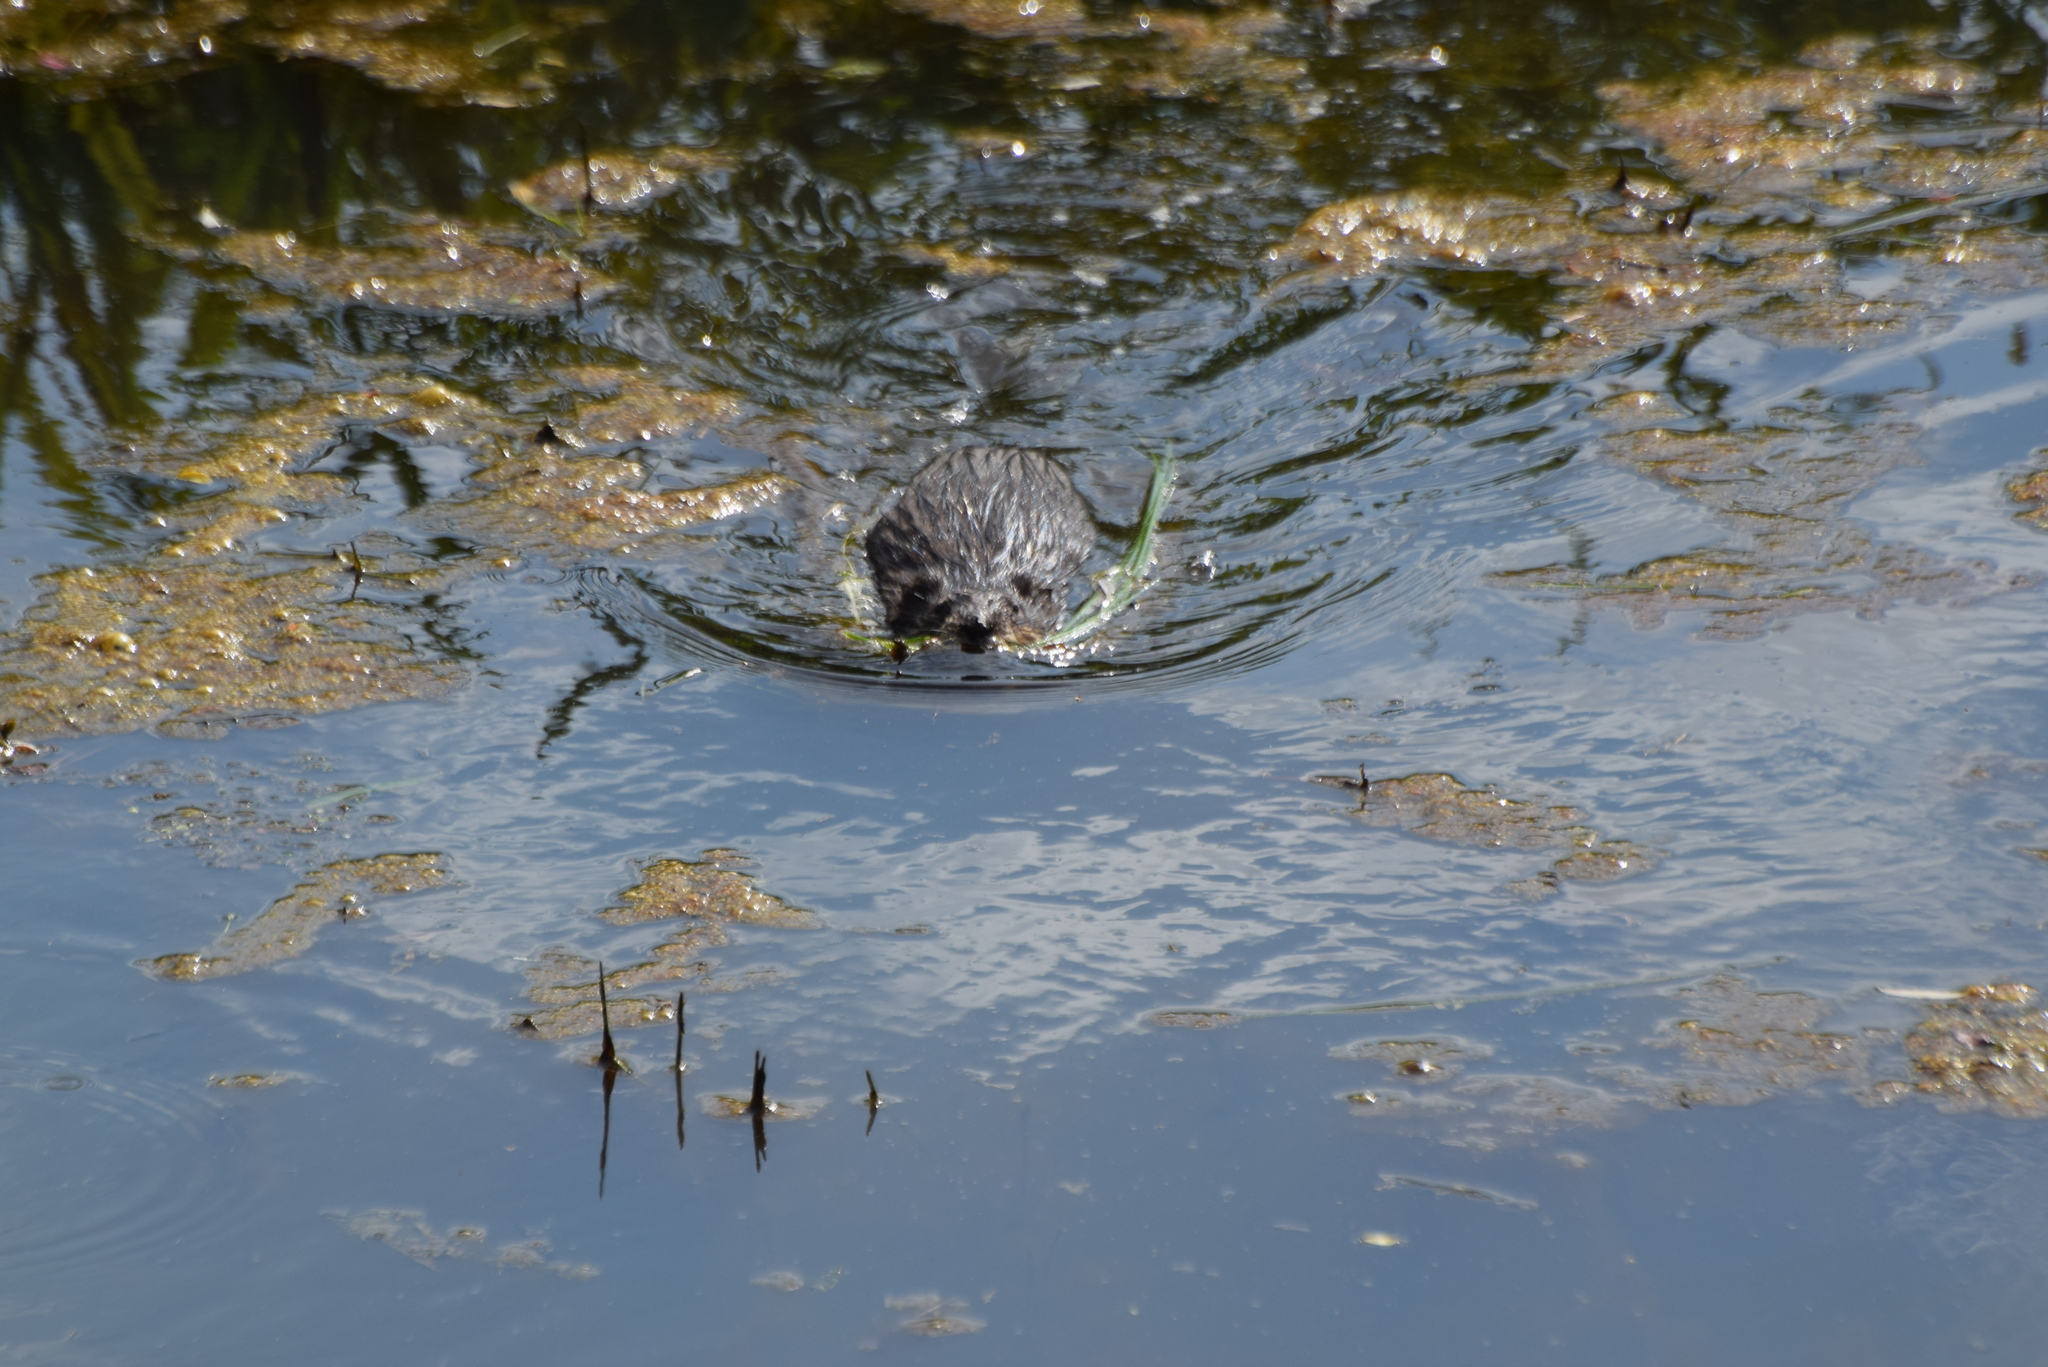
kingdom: Animalia
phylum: Chordata
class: Mammalia
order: Rodentia
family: Cricetidae
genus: Ondatra
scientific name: Ondatra zibethicus
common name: Muskrat
